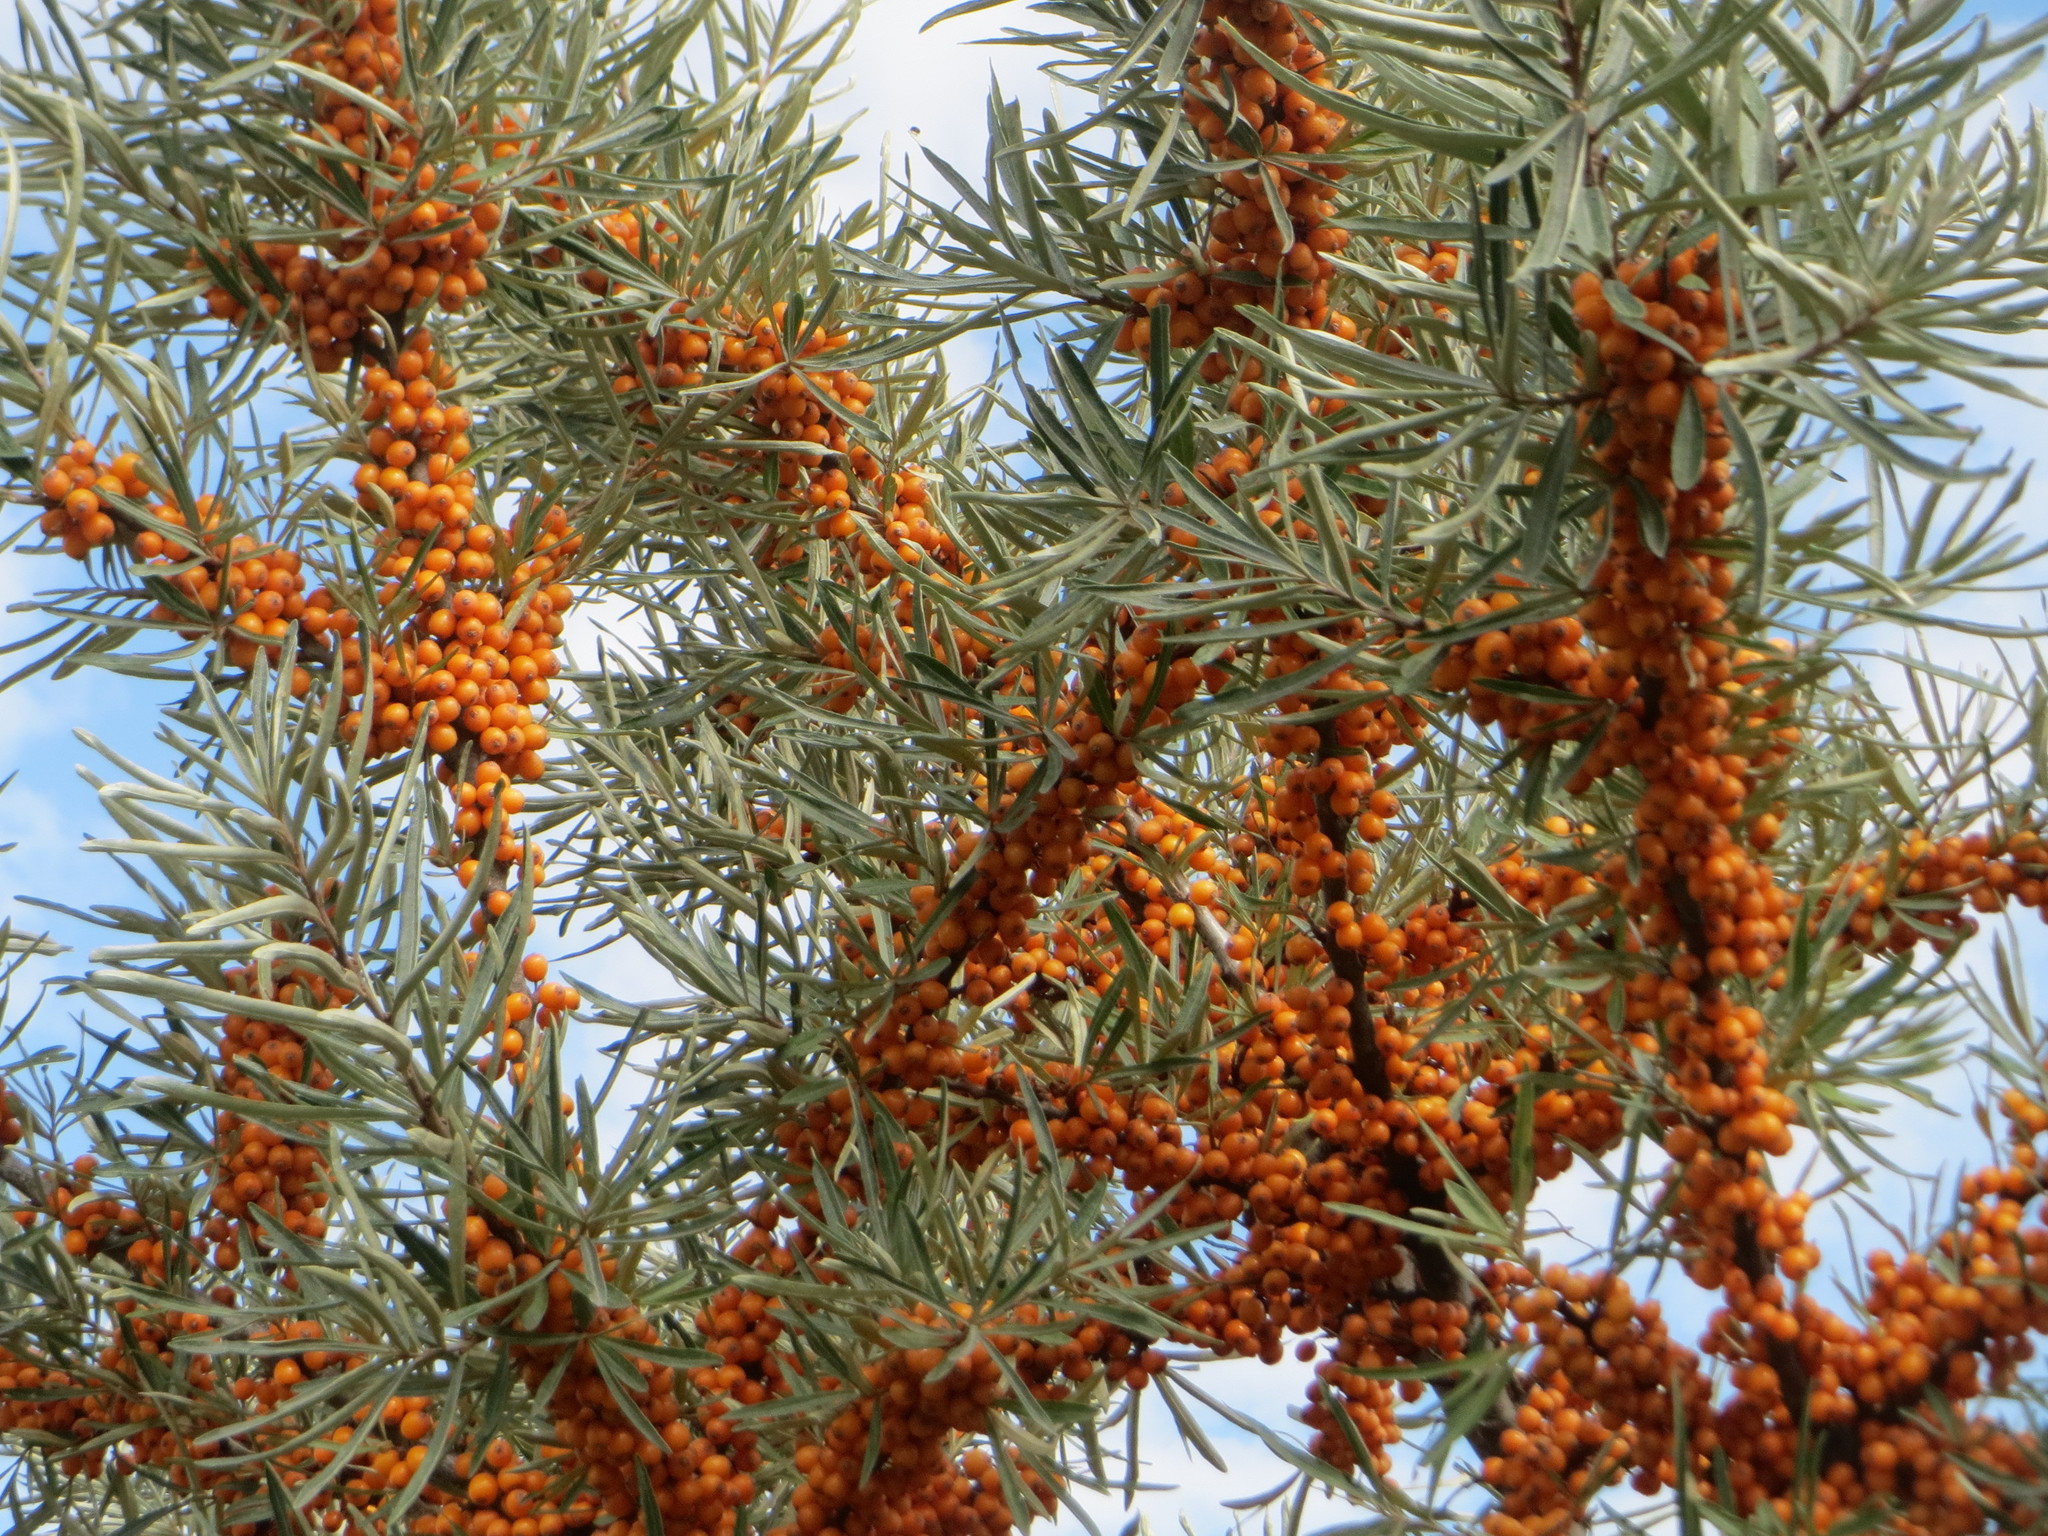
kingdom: Plantae
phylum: Tracheophyta
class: Magnoliopsida
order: Rosales
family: Elaeagnaceae
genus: Hippophae
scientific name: Hippophae rhamnoides
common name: Sea-buckthorn
